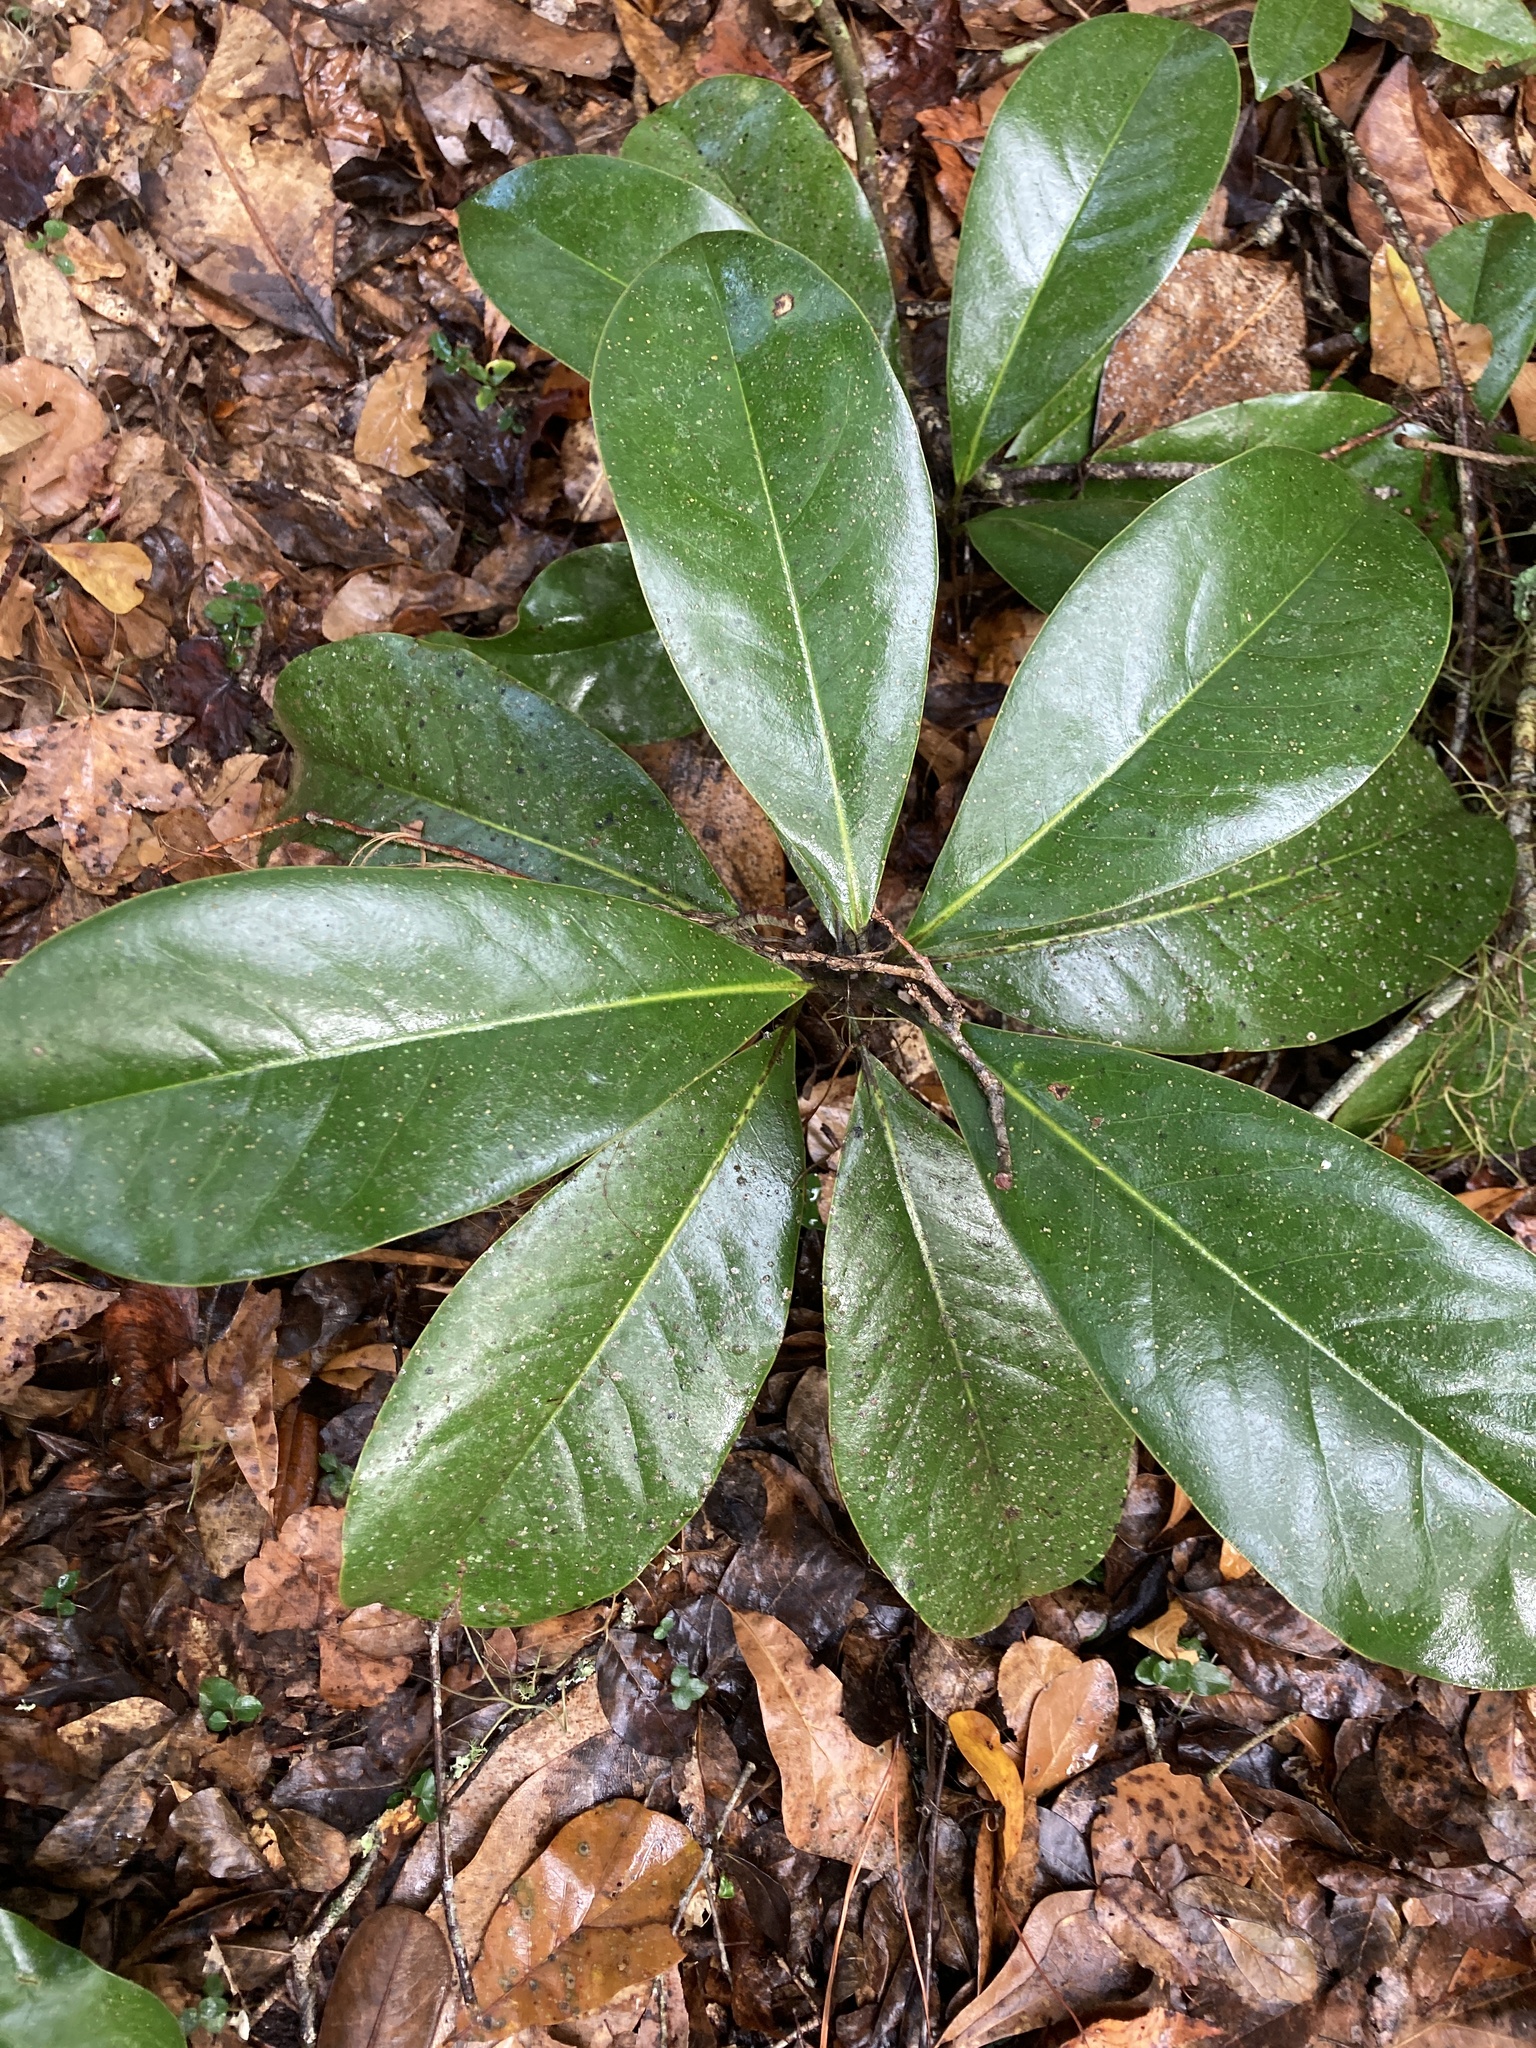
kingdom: Plantae
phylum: Tracheophyta
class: Magnoliopsida
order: Magnoliales
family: Magnoliaceae
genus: Magnolia
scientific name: Magnolia grandiflora
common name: Southern magnolia
